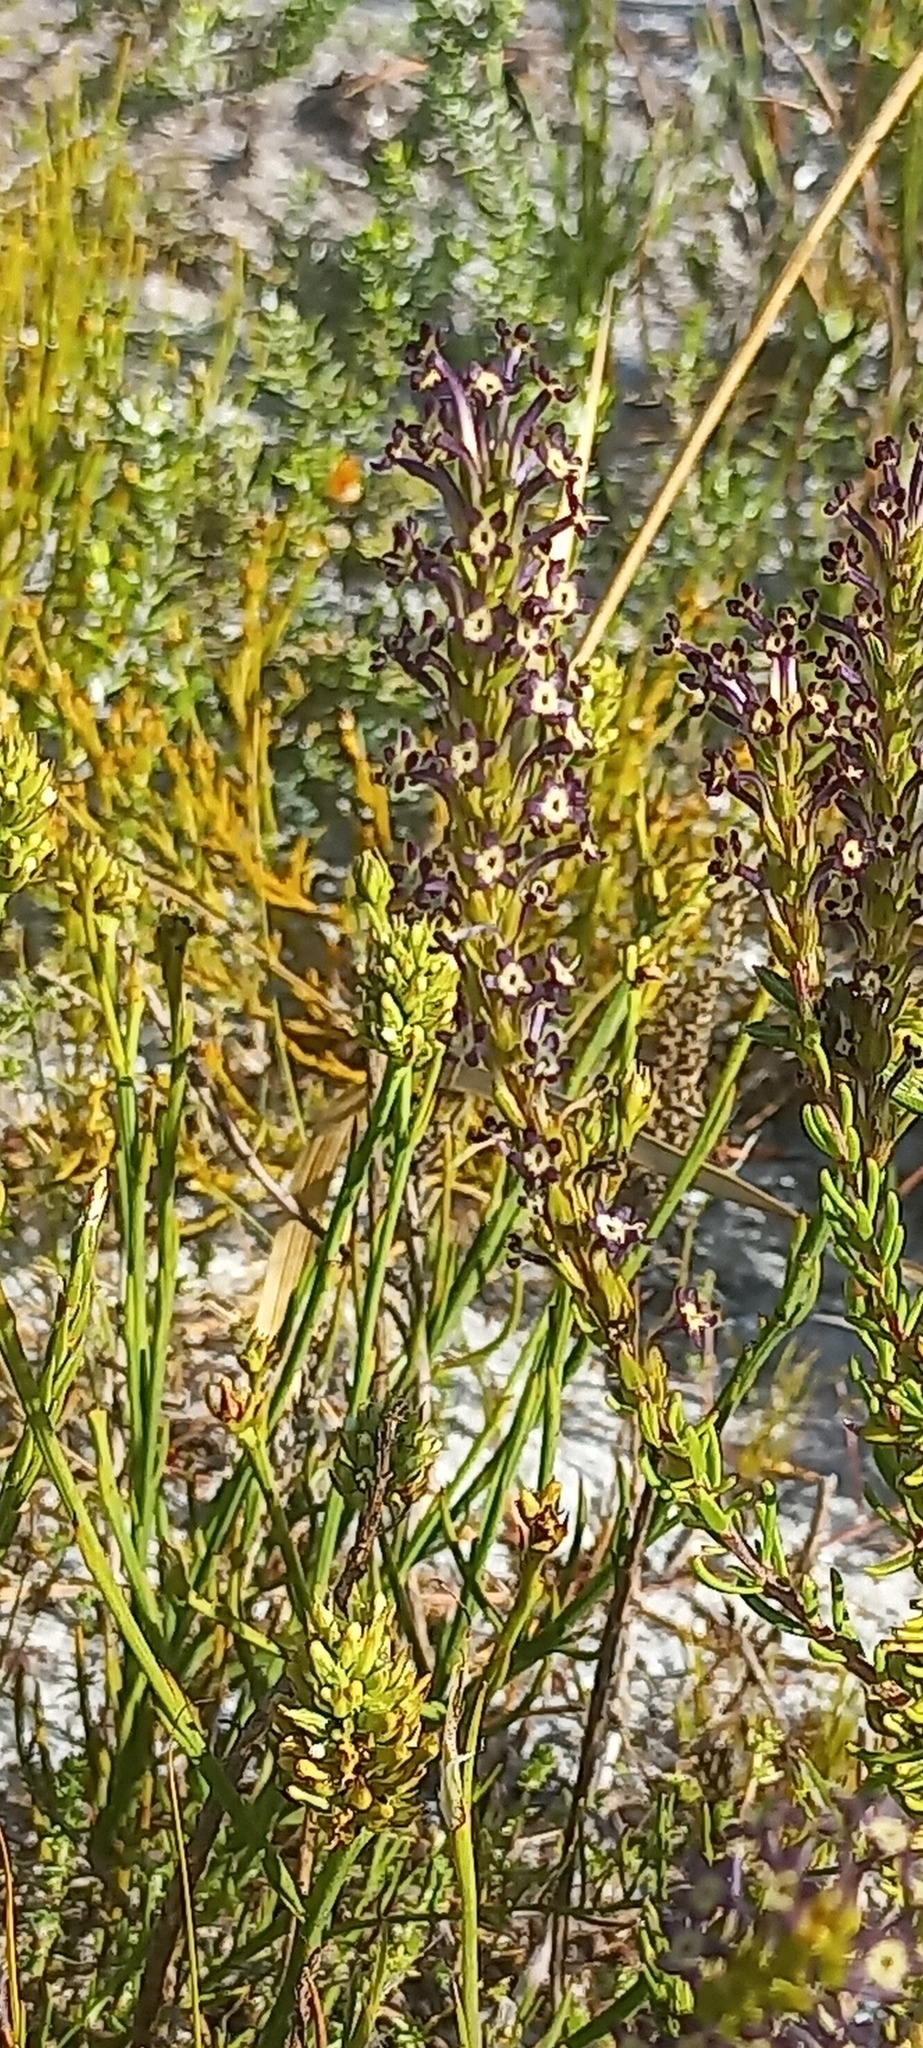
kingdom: Plantae
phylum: Tracheophyta
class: Magnoliopsida
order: Lamiales
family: Scrophulariaceae
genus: Microdon
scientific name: Microdon dubius
